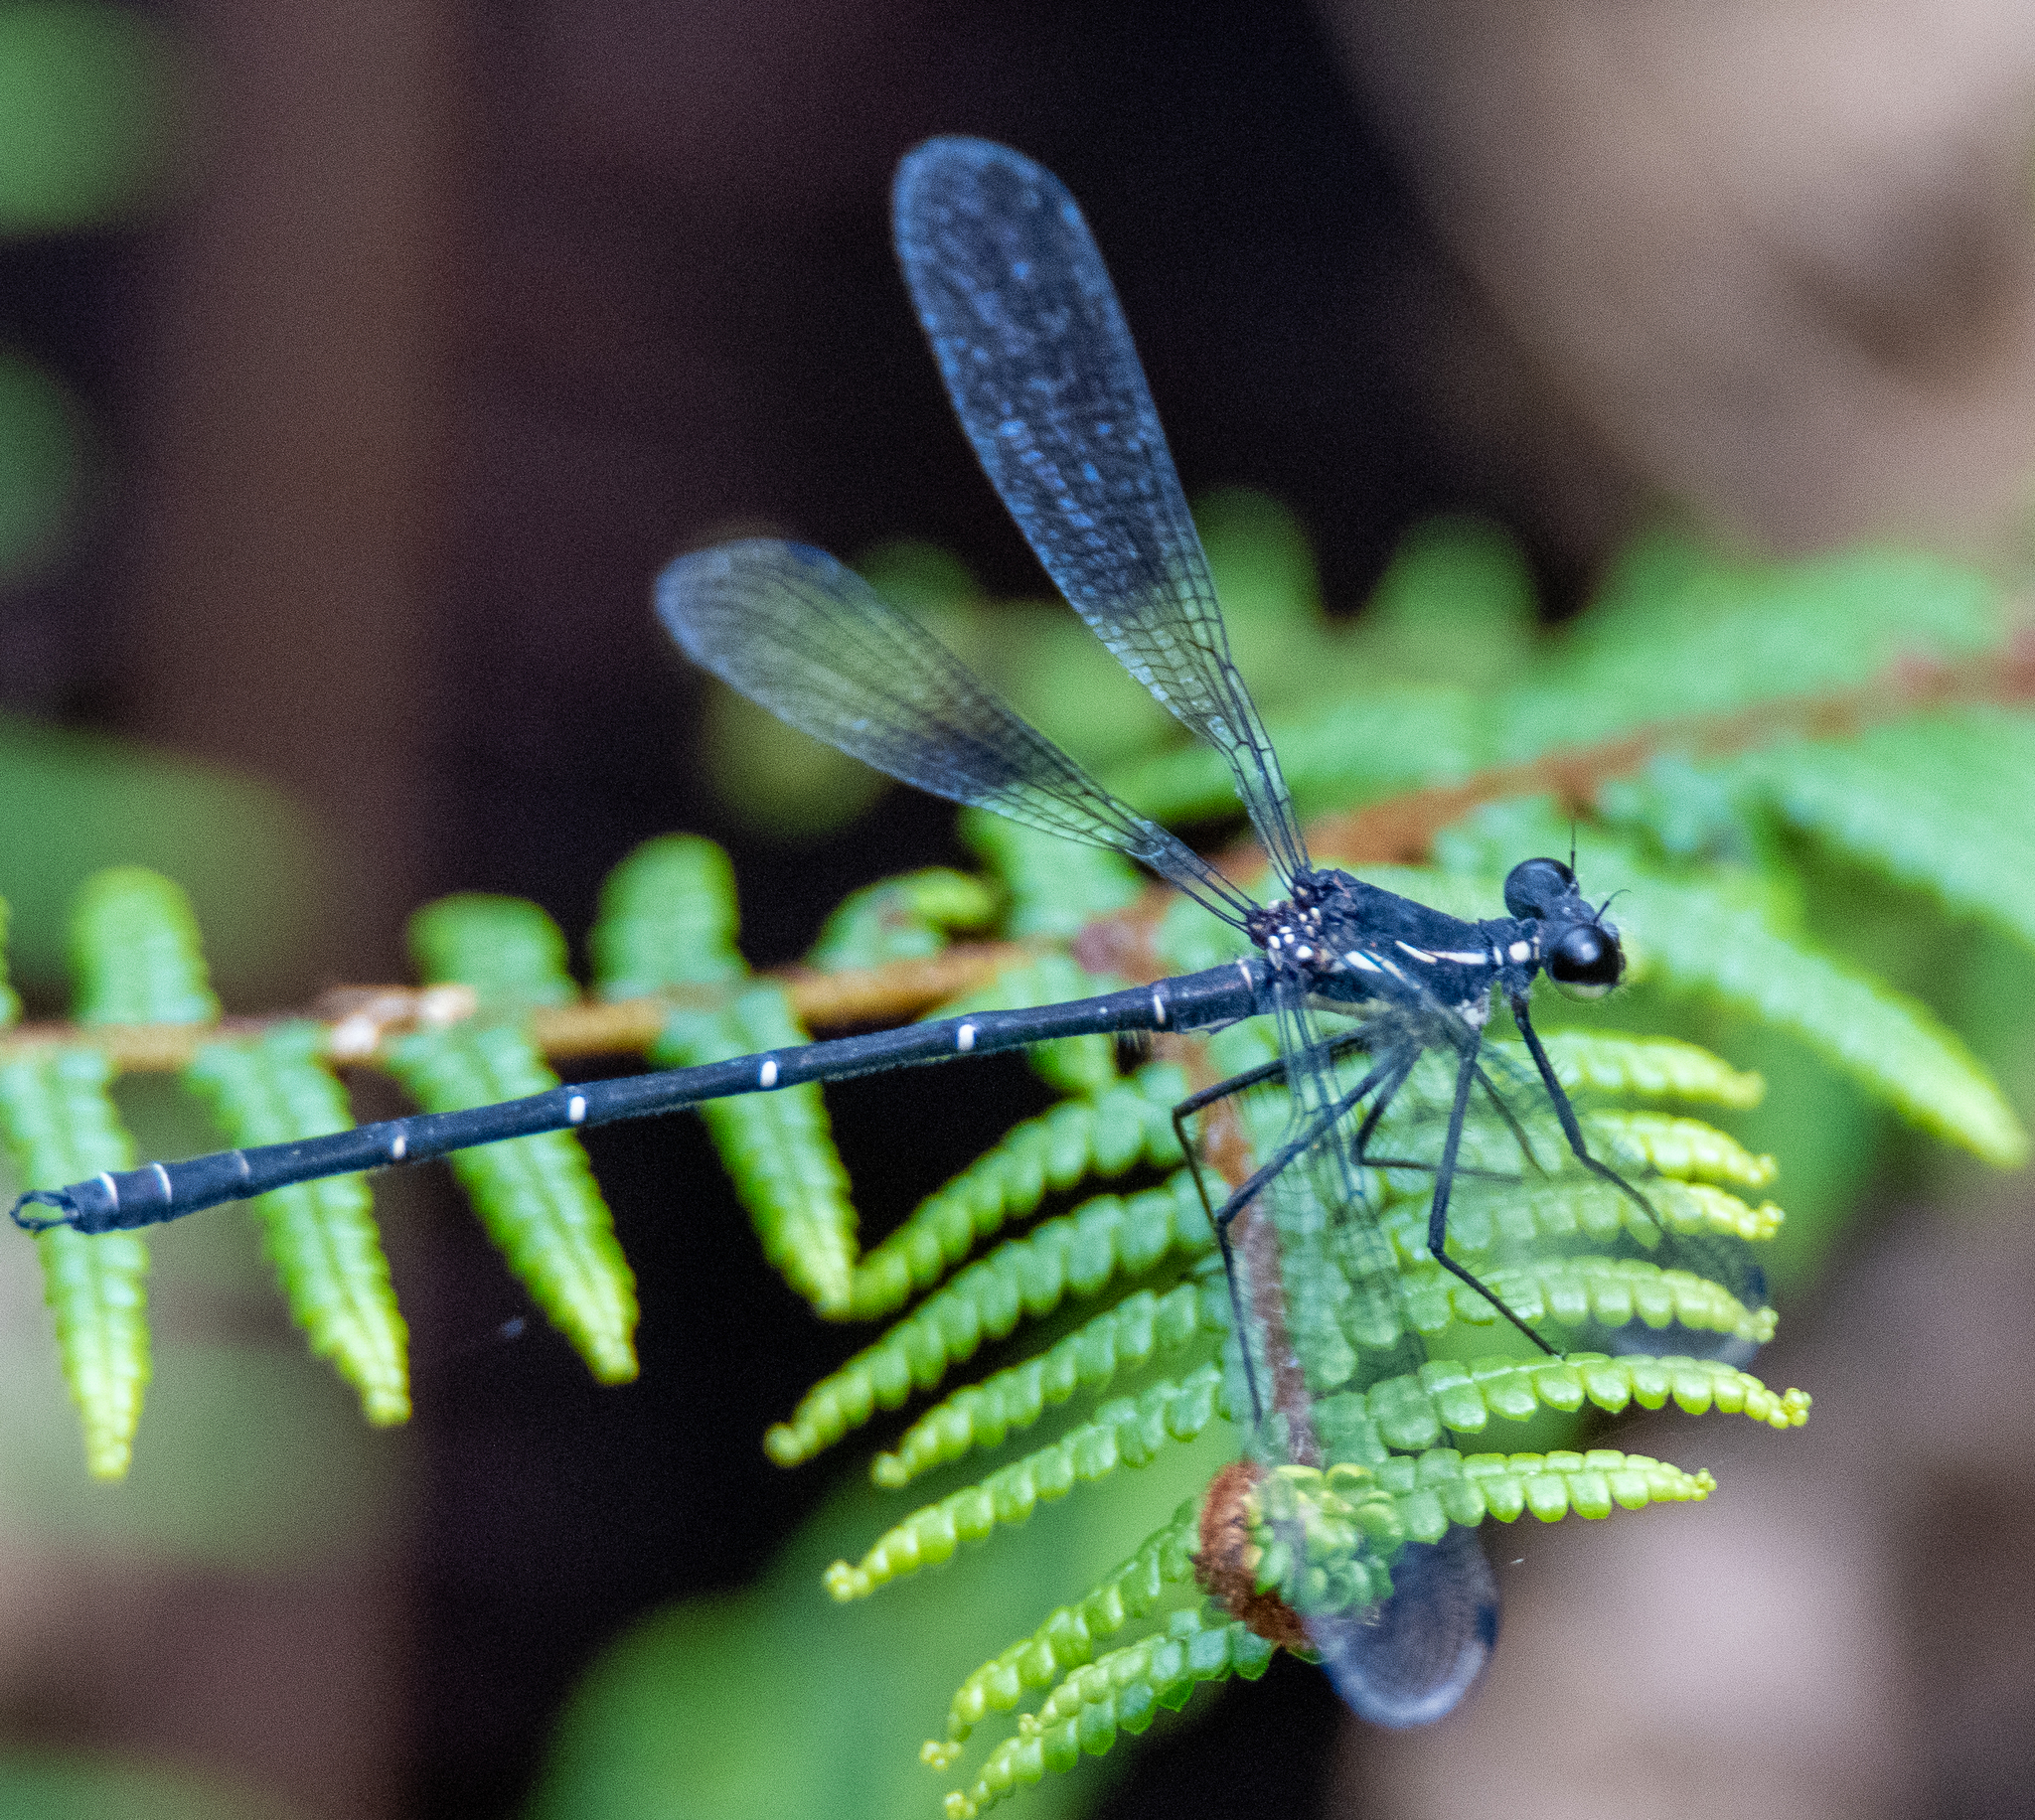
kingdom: Animalia
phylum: Arthropoda
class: Insecta
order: Odonata
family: Argiolestidae
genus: Austroargiolestes
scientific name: Austroargiolestes isabellae
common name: Sydney flatwing
